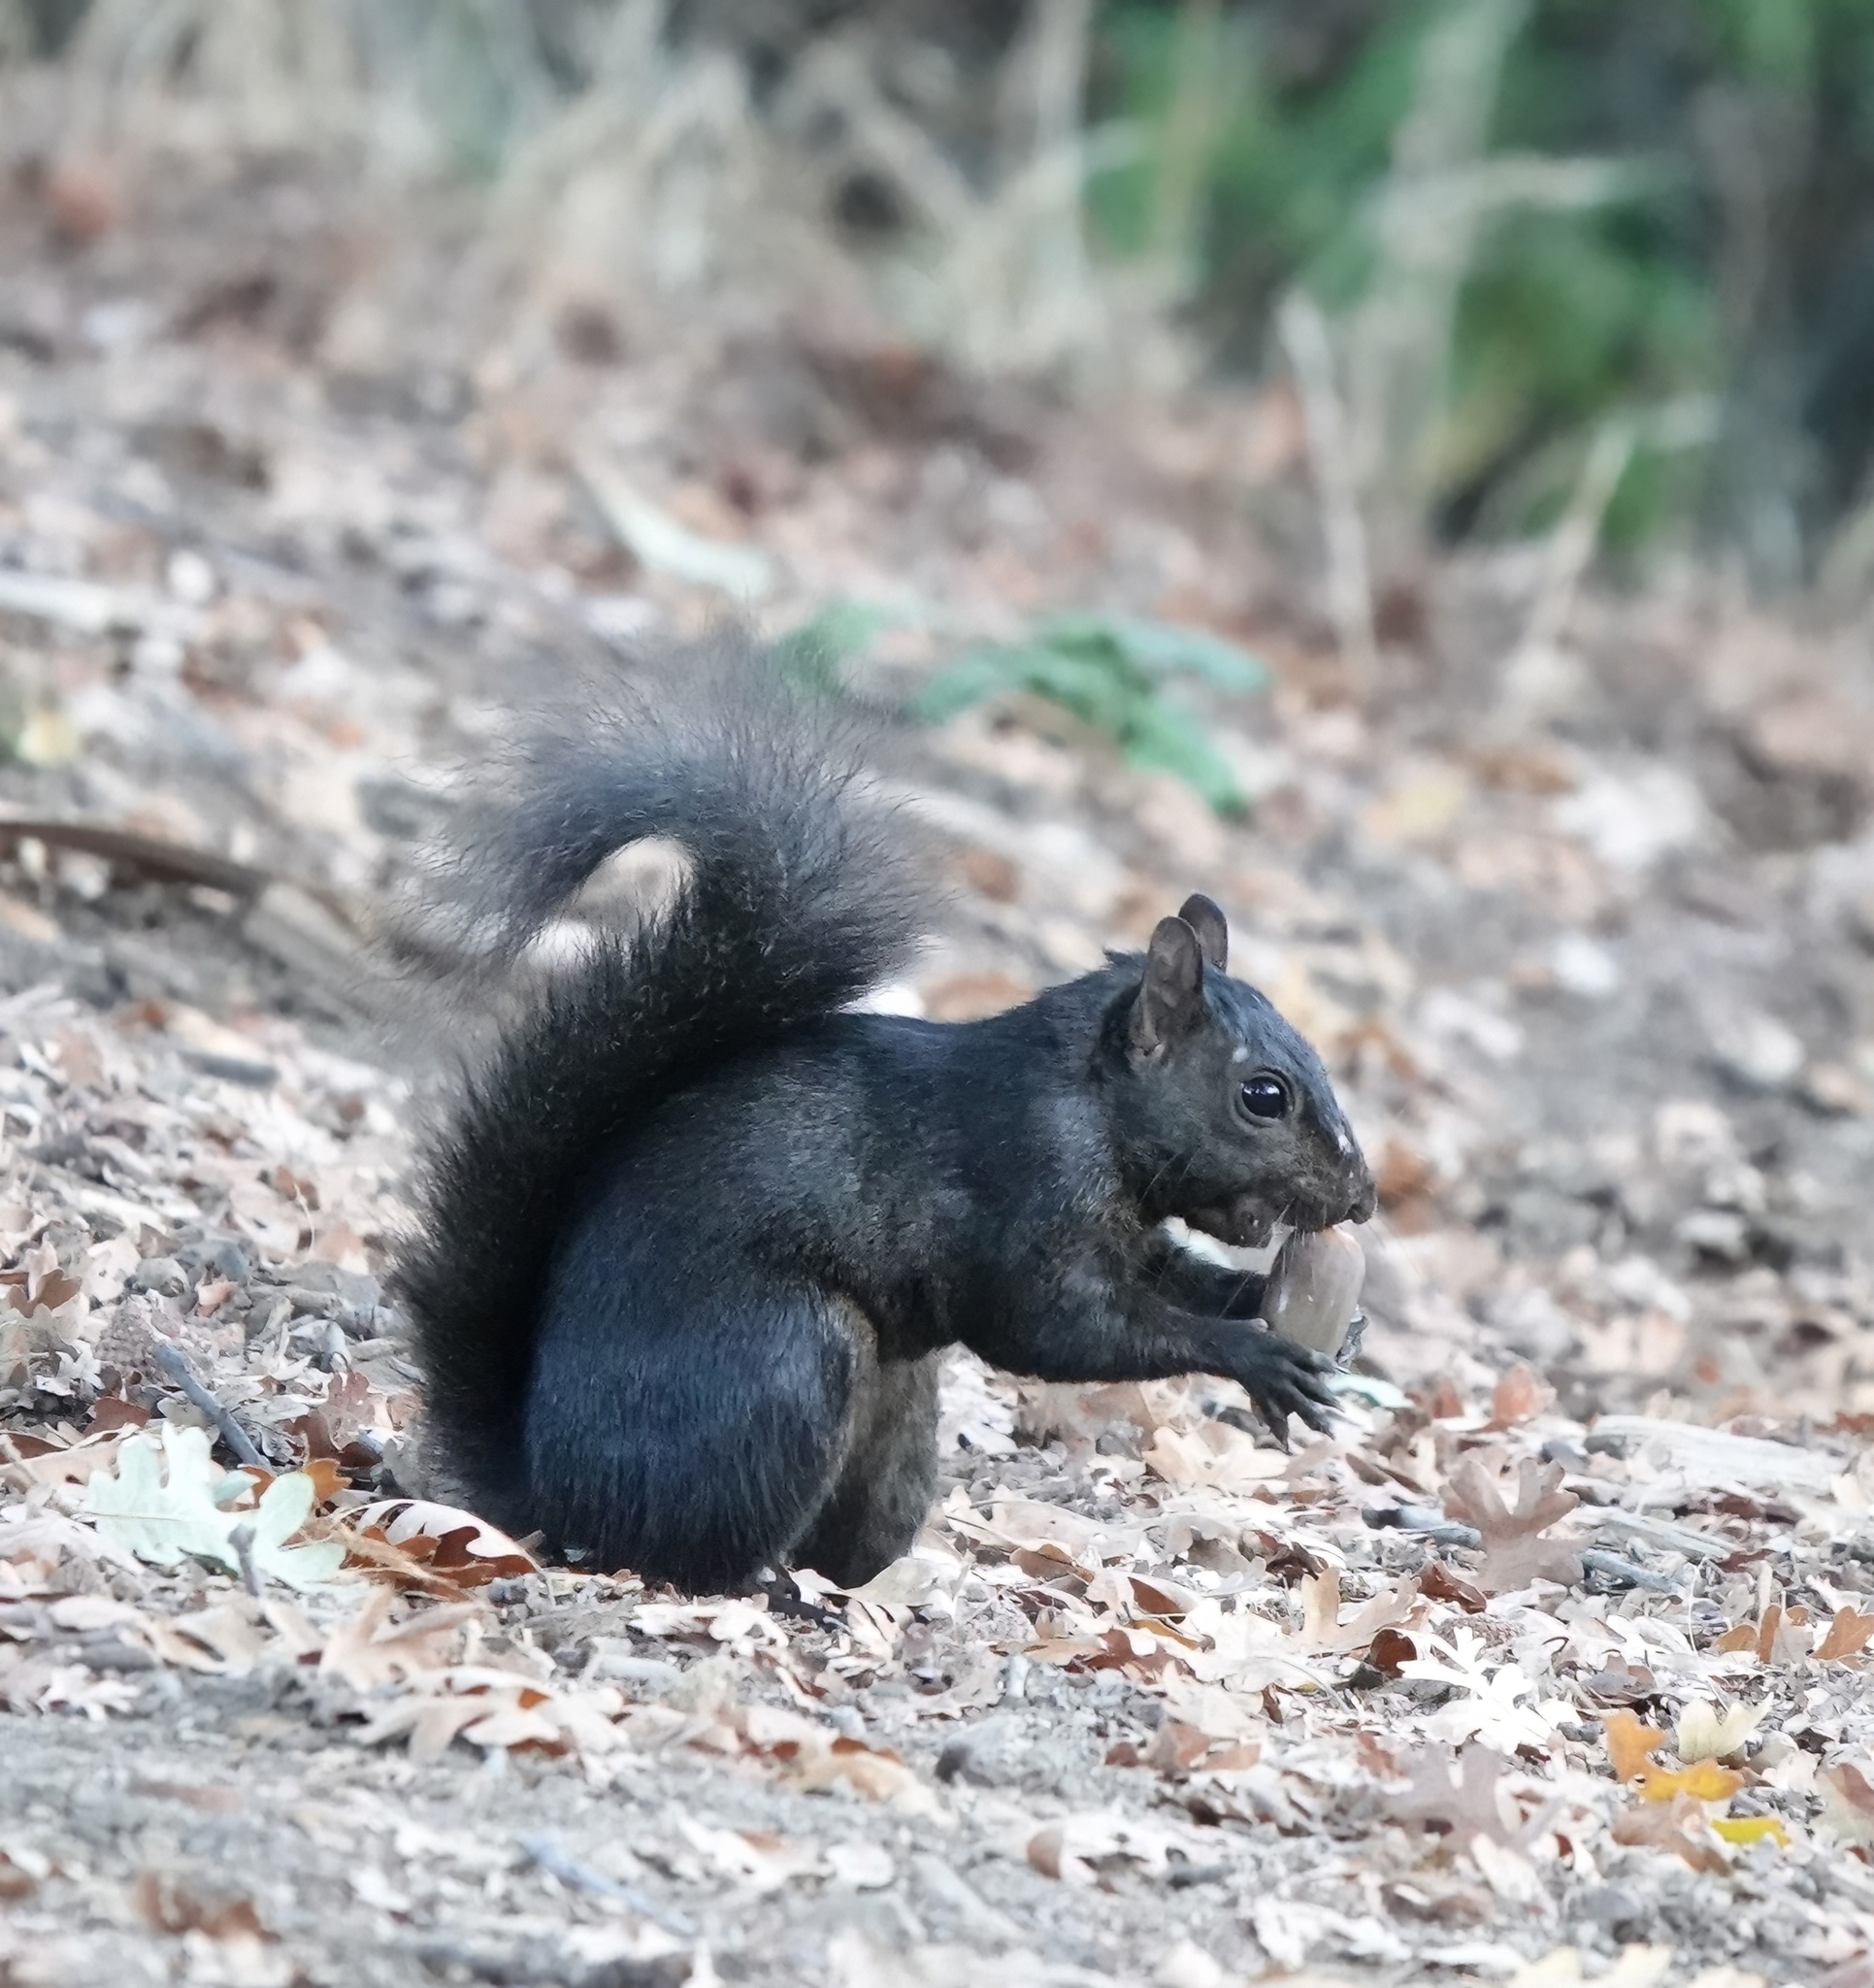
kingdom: Animalia
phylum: Chordata
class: Mammalia
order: Rodentia
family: Sciuridae
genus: Sciurus
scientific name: Sciurus carolinensis
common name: Eastern gray squirrel
